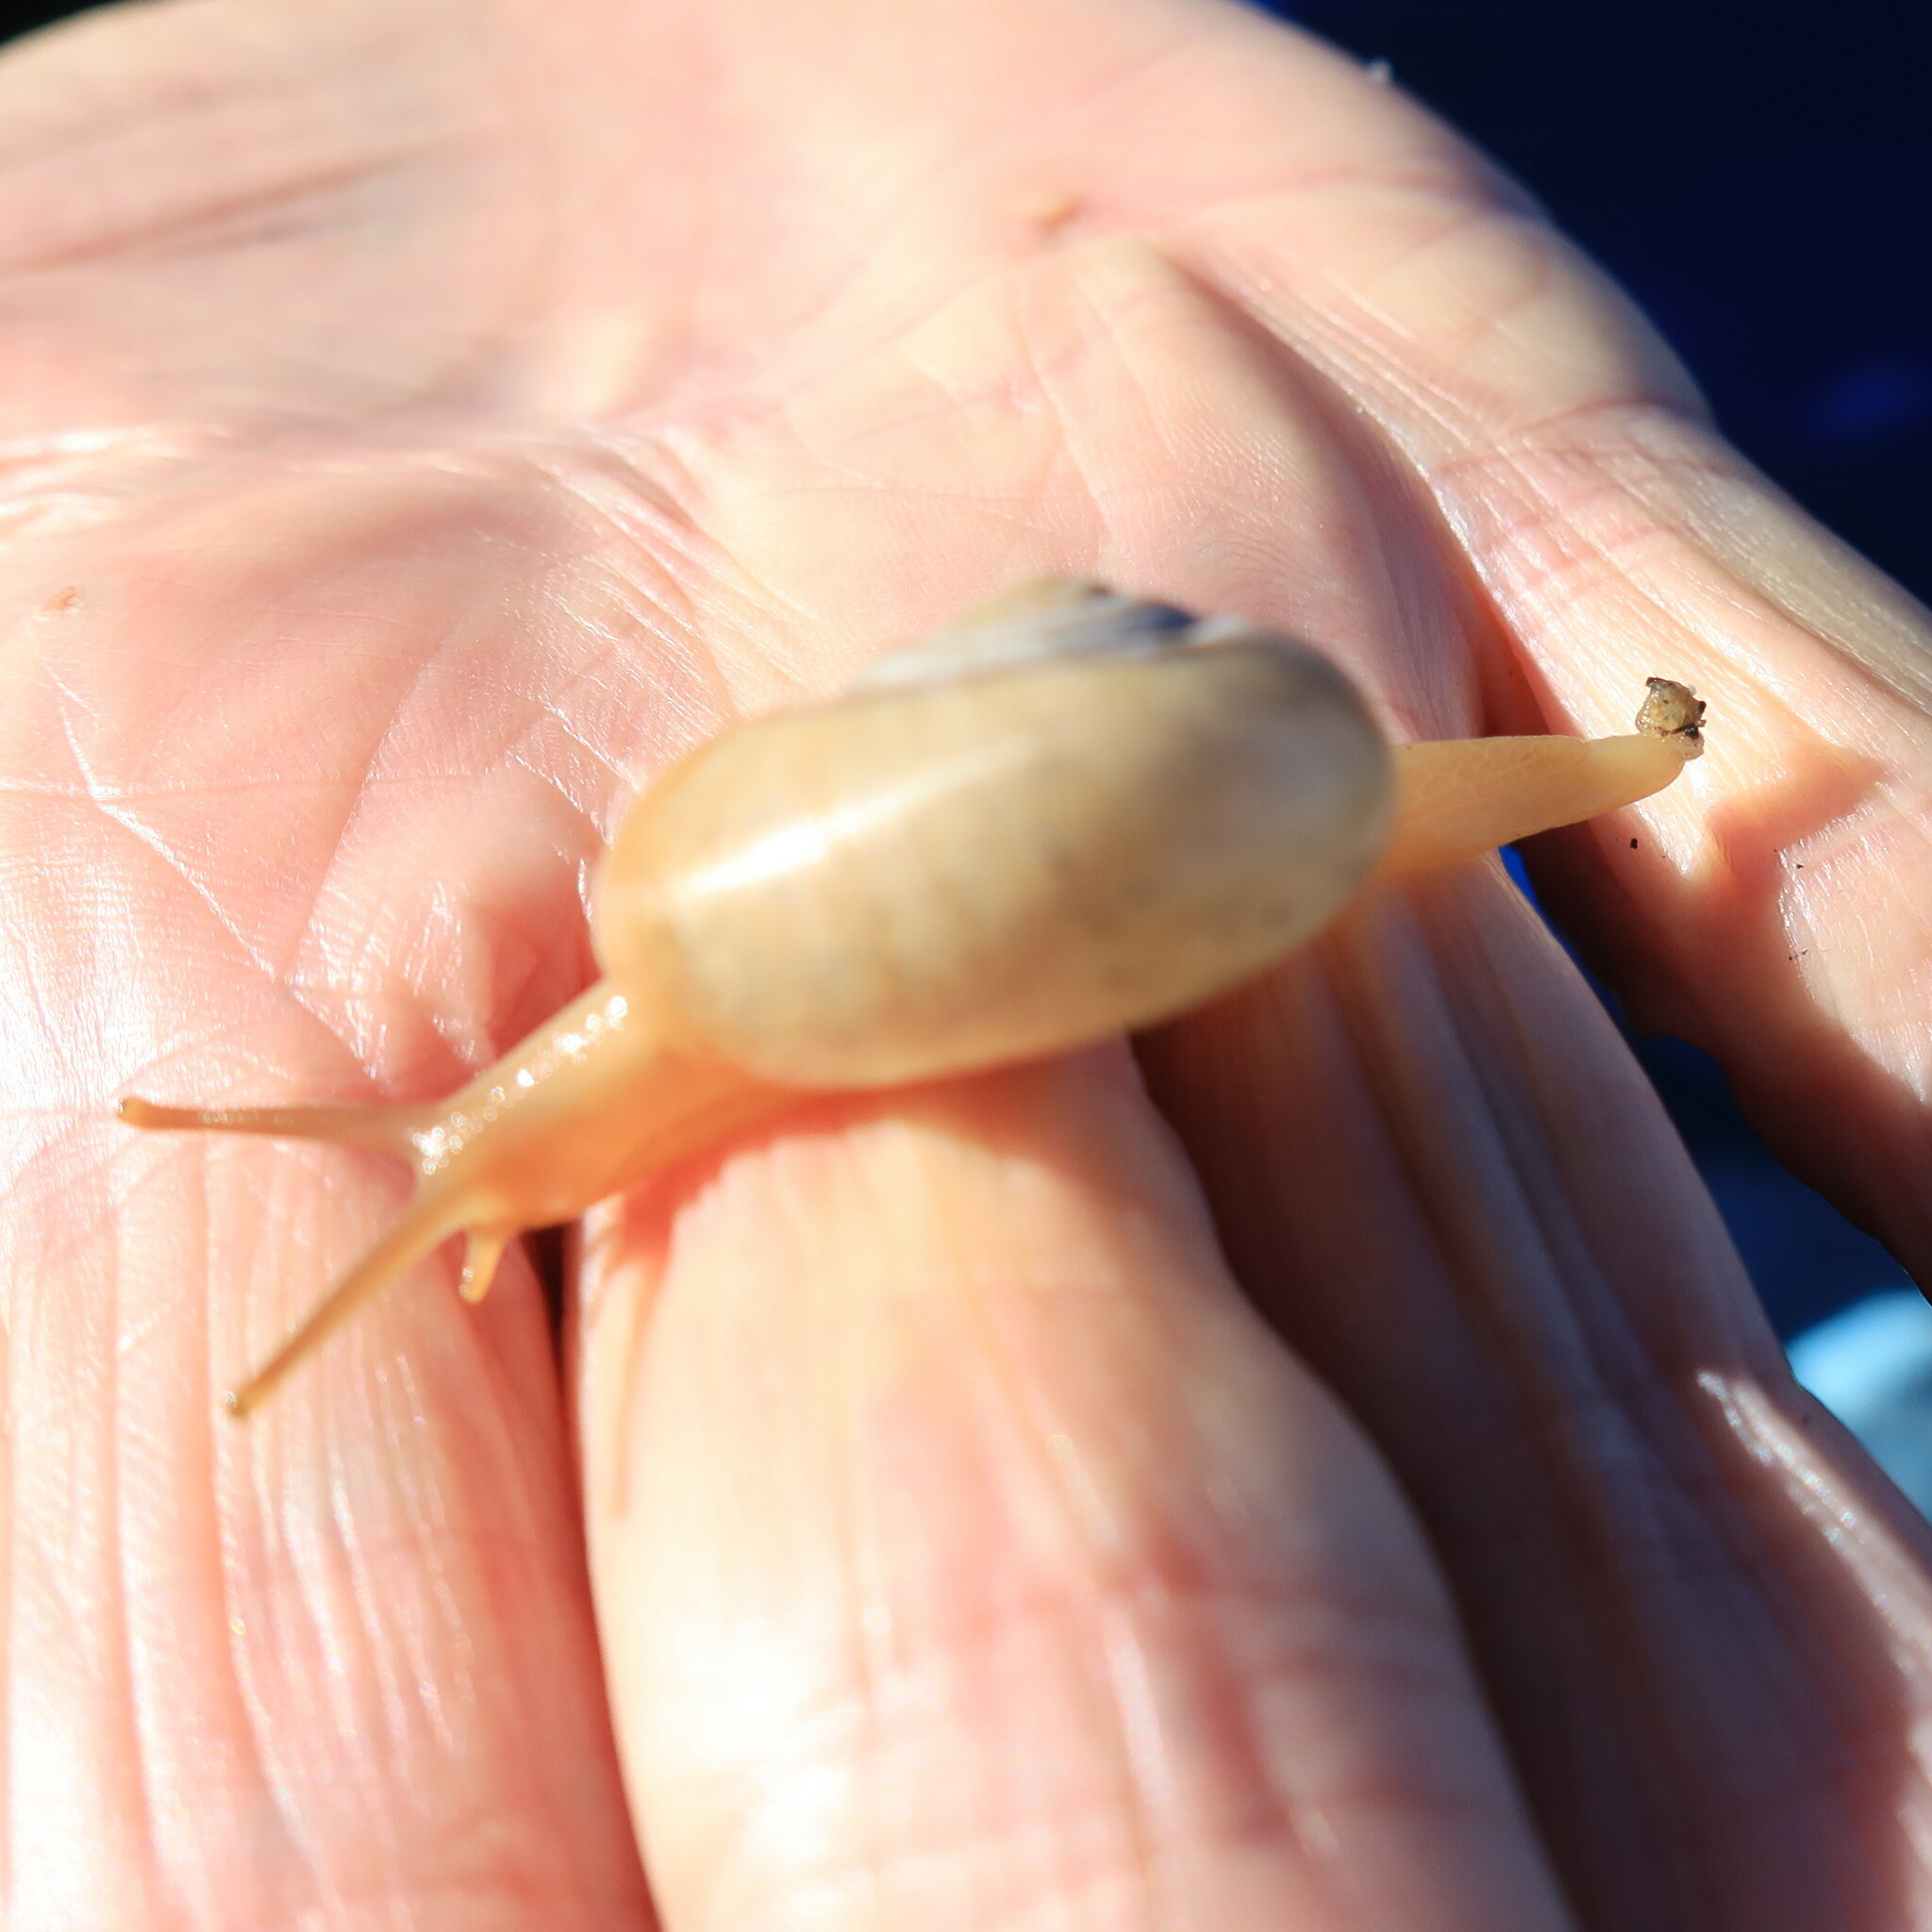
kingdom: Animalia
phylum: Mollusca
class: Gastropoda
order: Stylommatophora
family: Charopidae
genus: Phortion
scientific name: Phortion menkeanum
